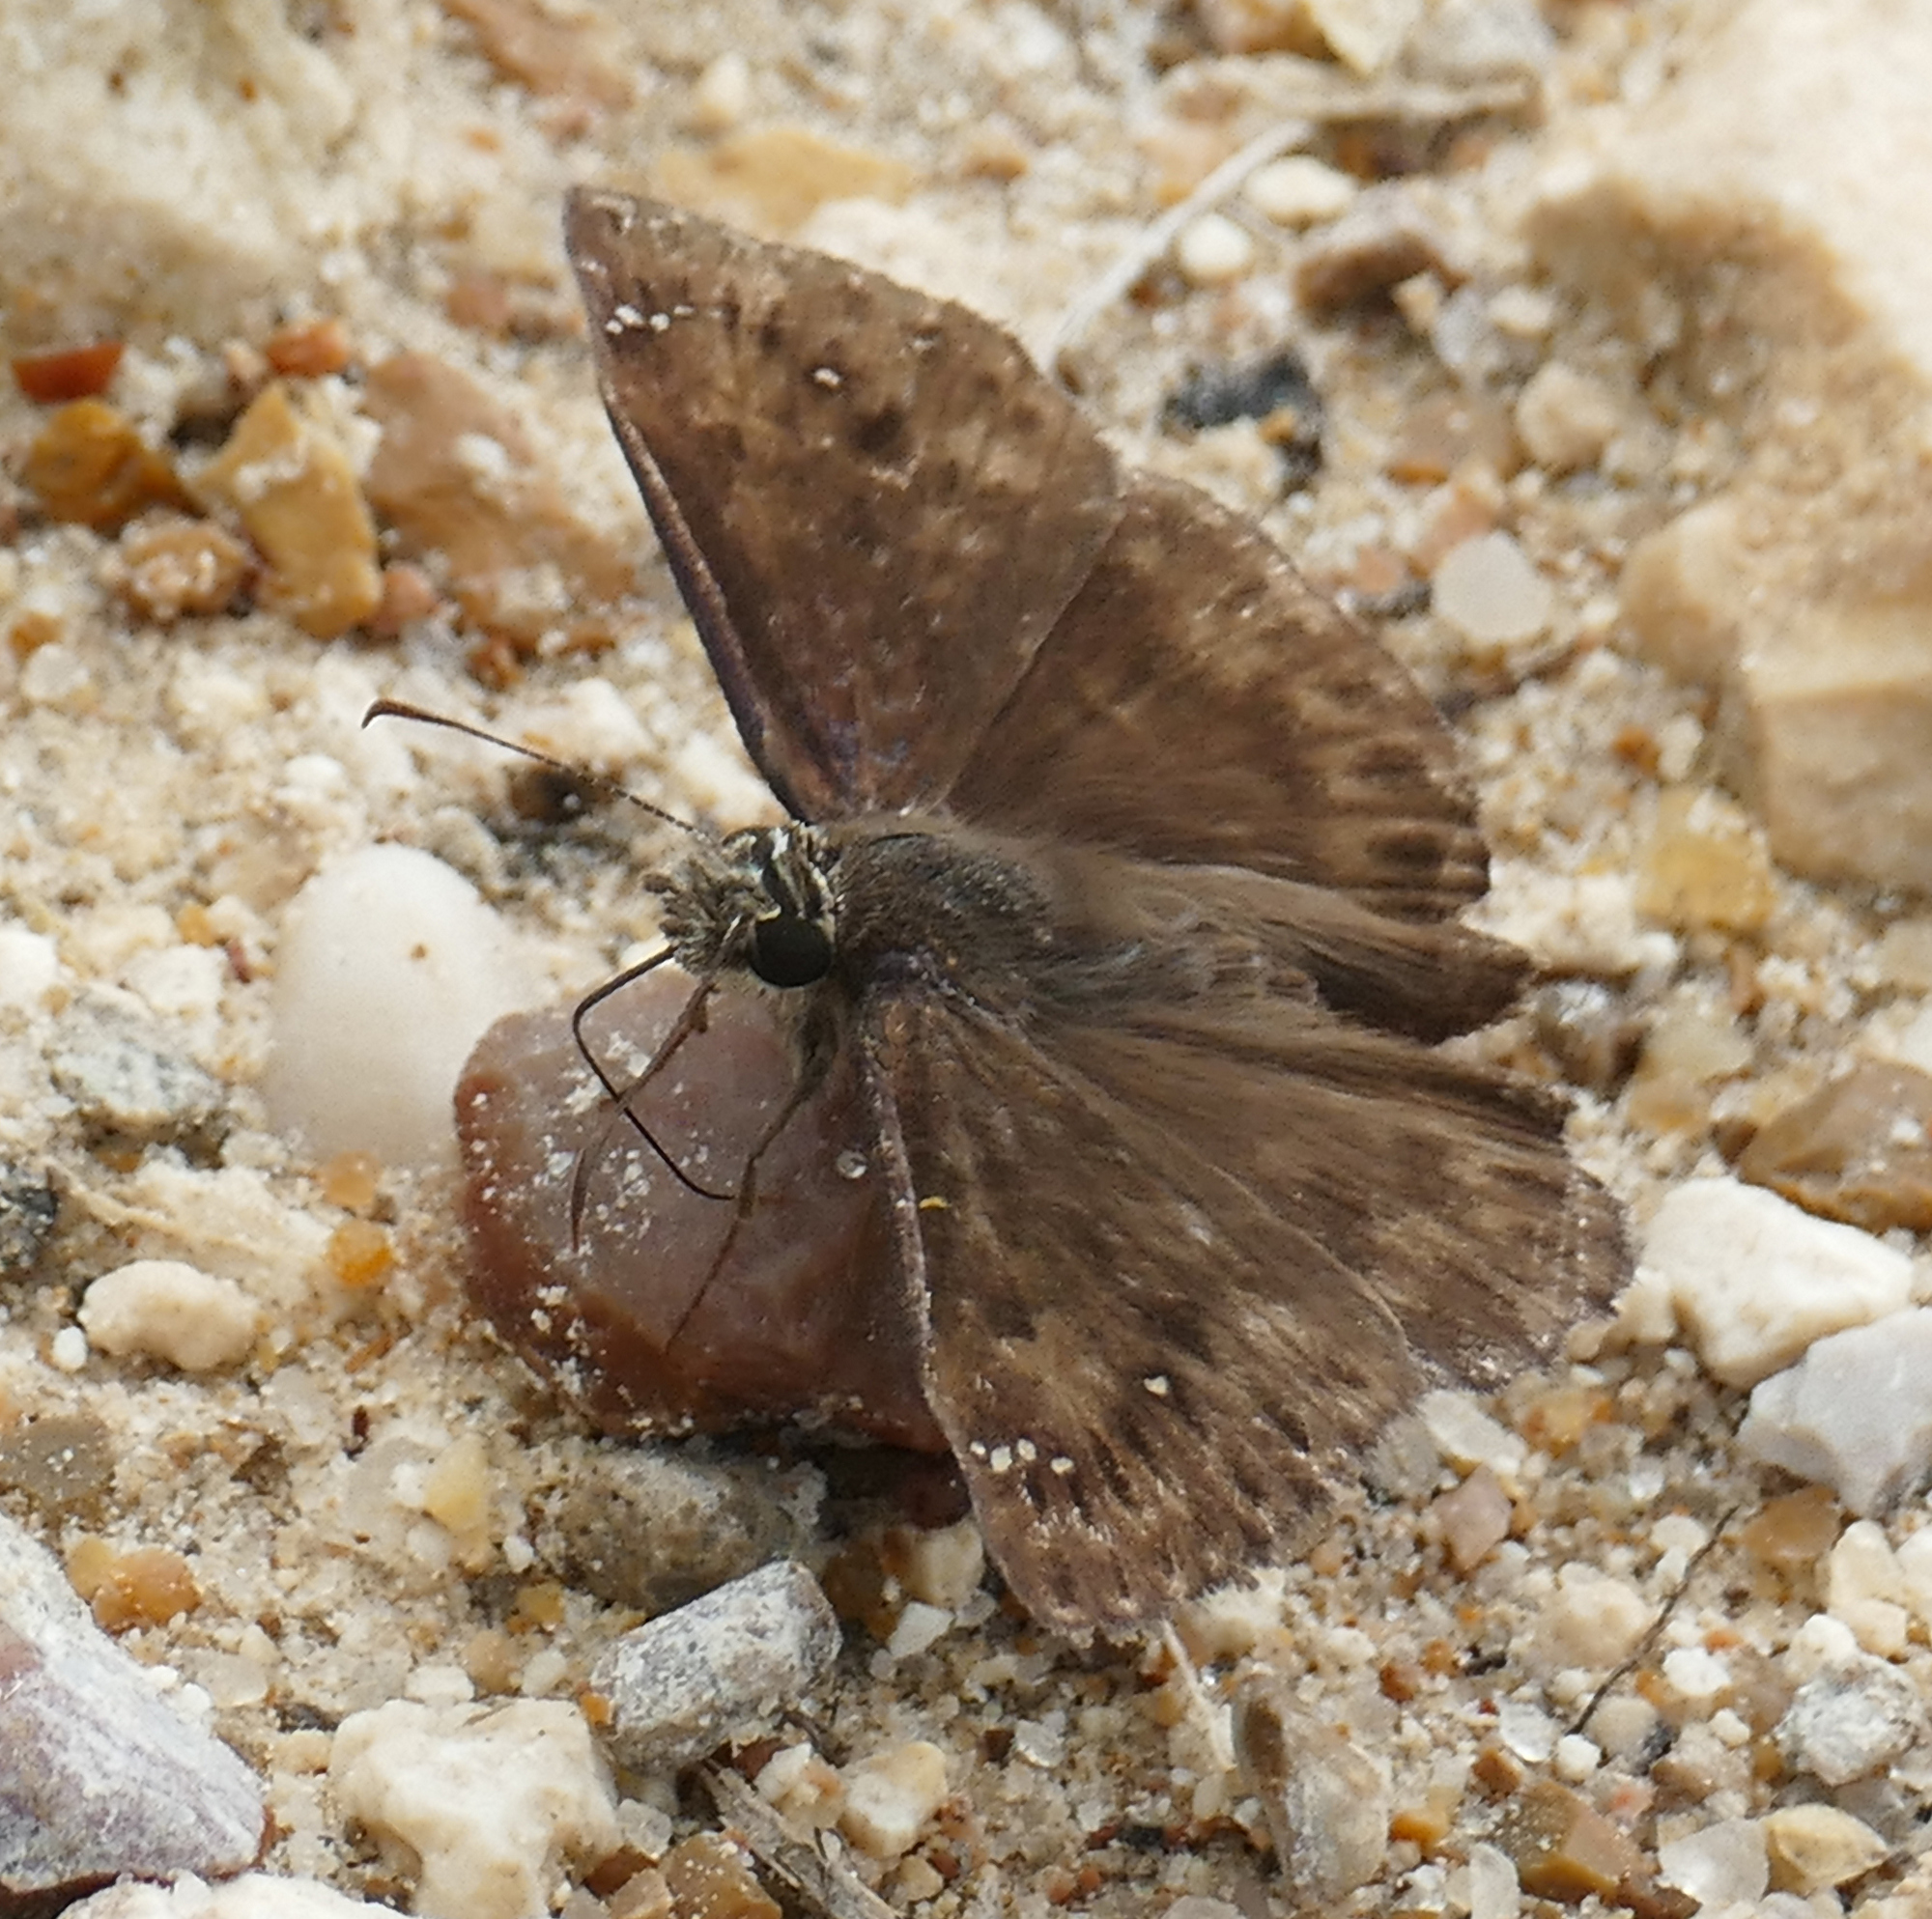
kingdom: Animalia
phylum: Arthropoda
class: Insecta
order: Lepidoptera
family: Hesperiidae
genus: Erynnis
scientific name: Erynnis horatius
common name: Horace's duskywing
